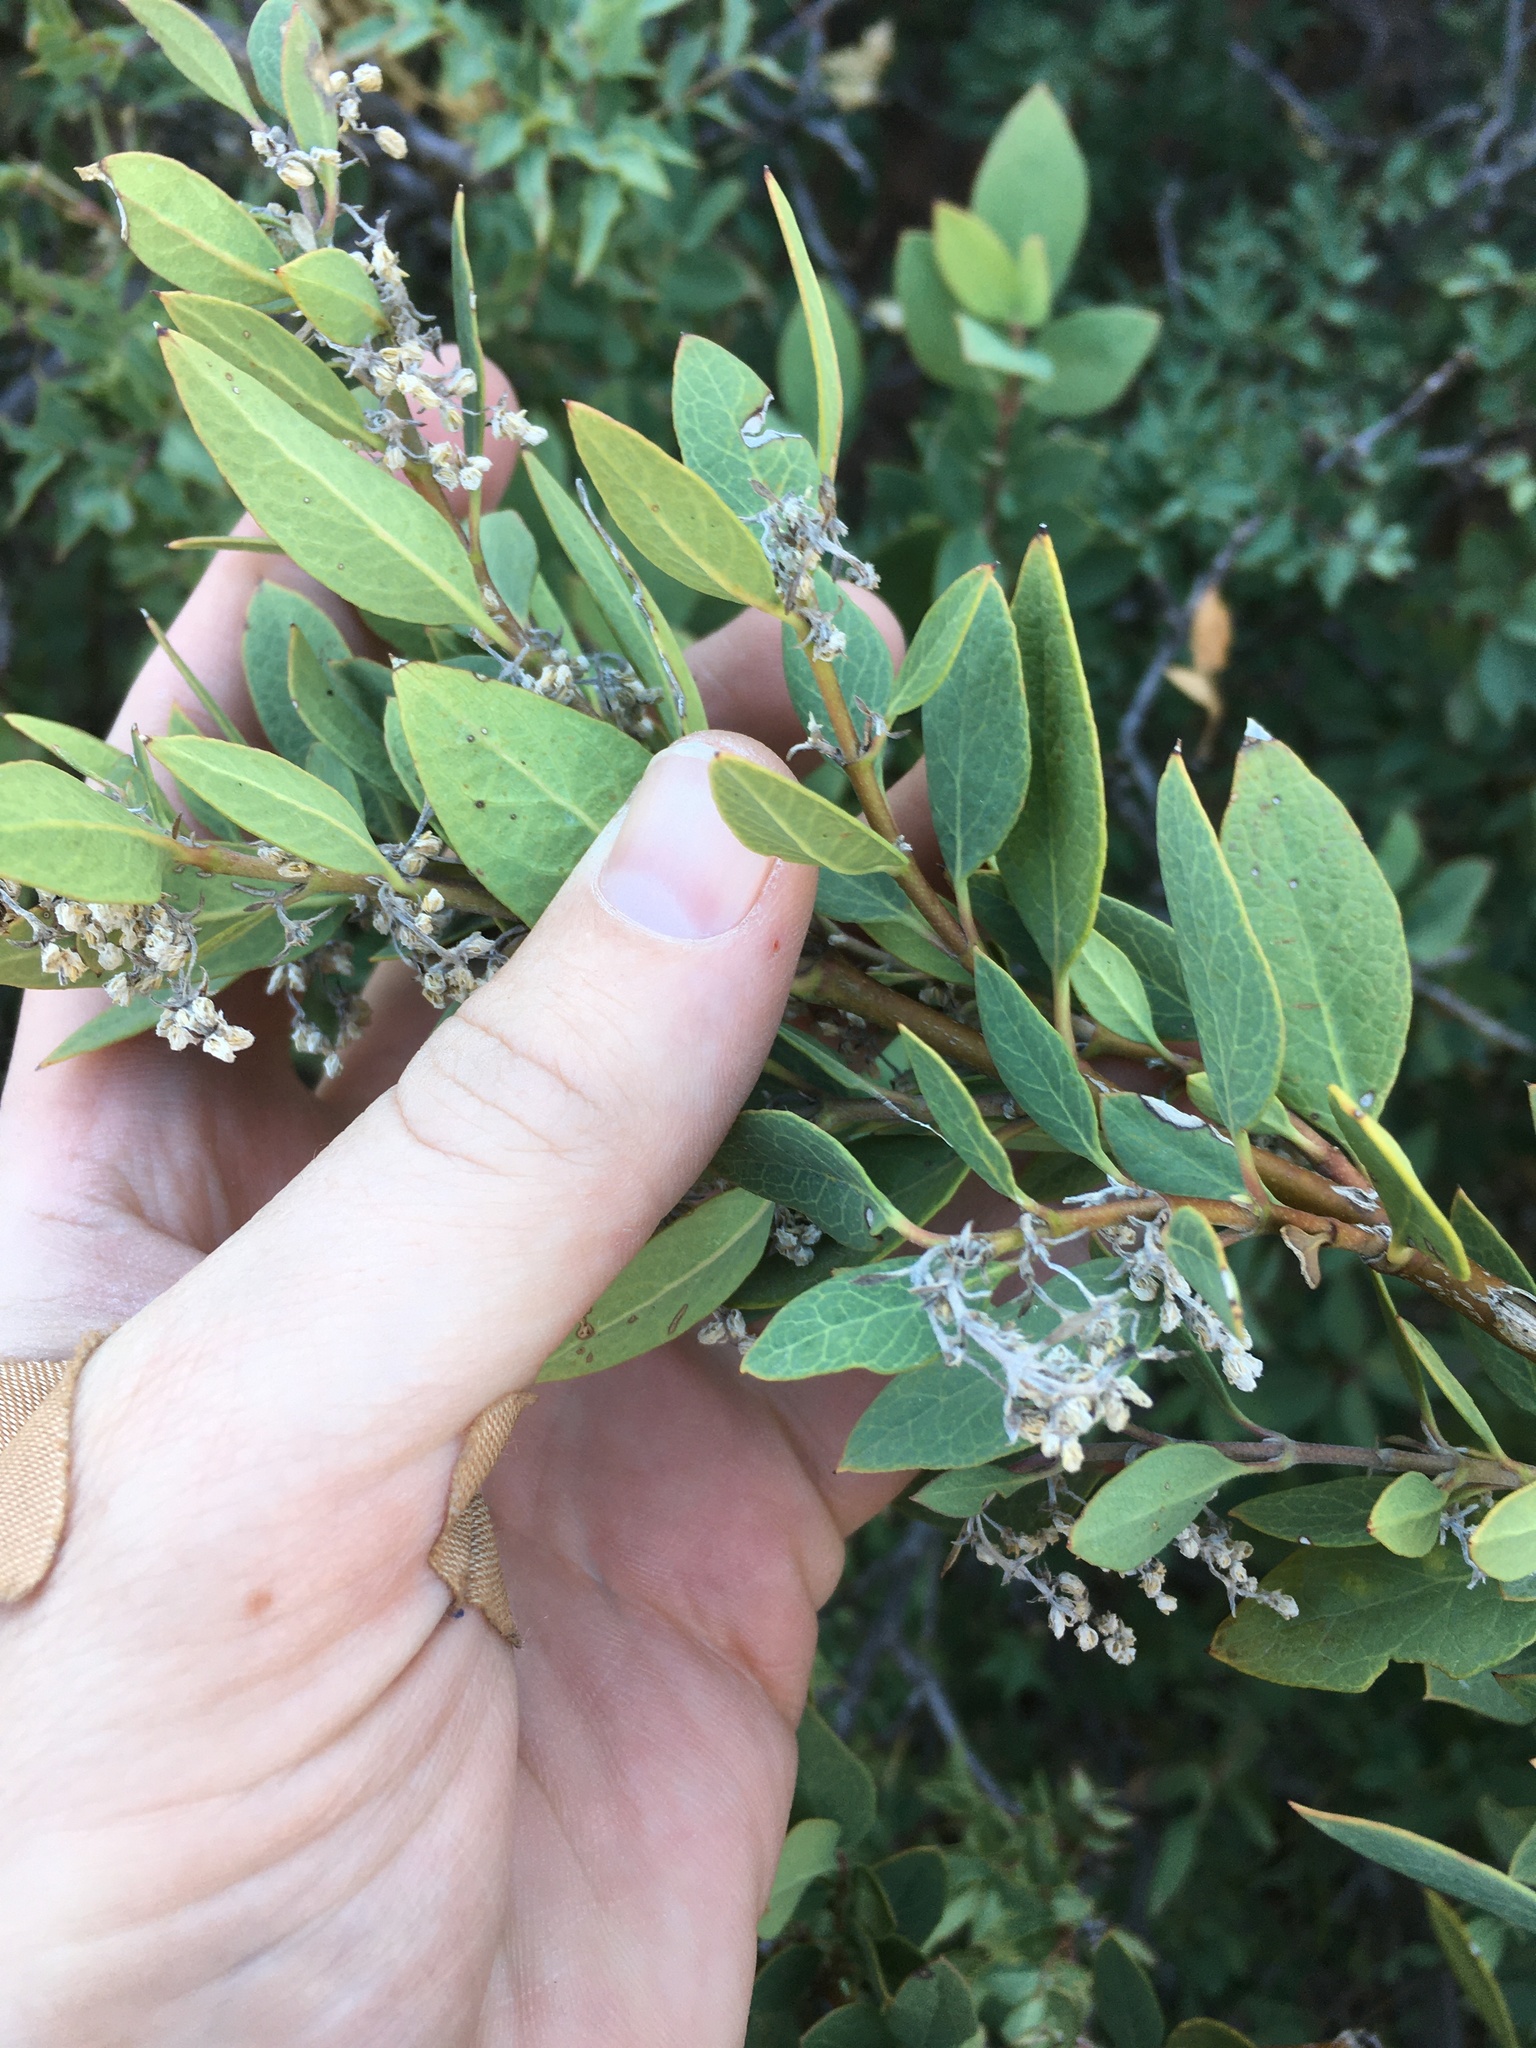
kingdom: Plantae
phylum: Tracheophyta
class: Magnoliopsida
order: Garryales
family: Garryaceae
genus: Garrya
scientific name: Garrya wrightii
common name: Wright's silktassel
